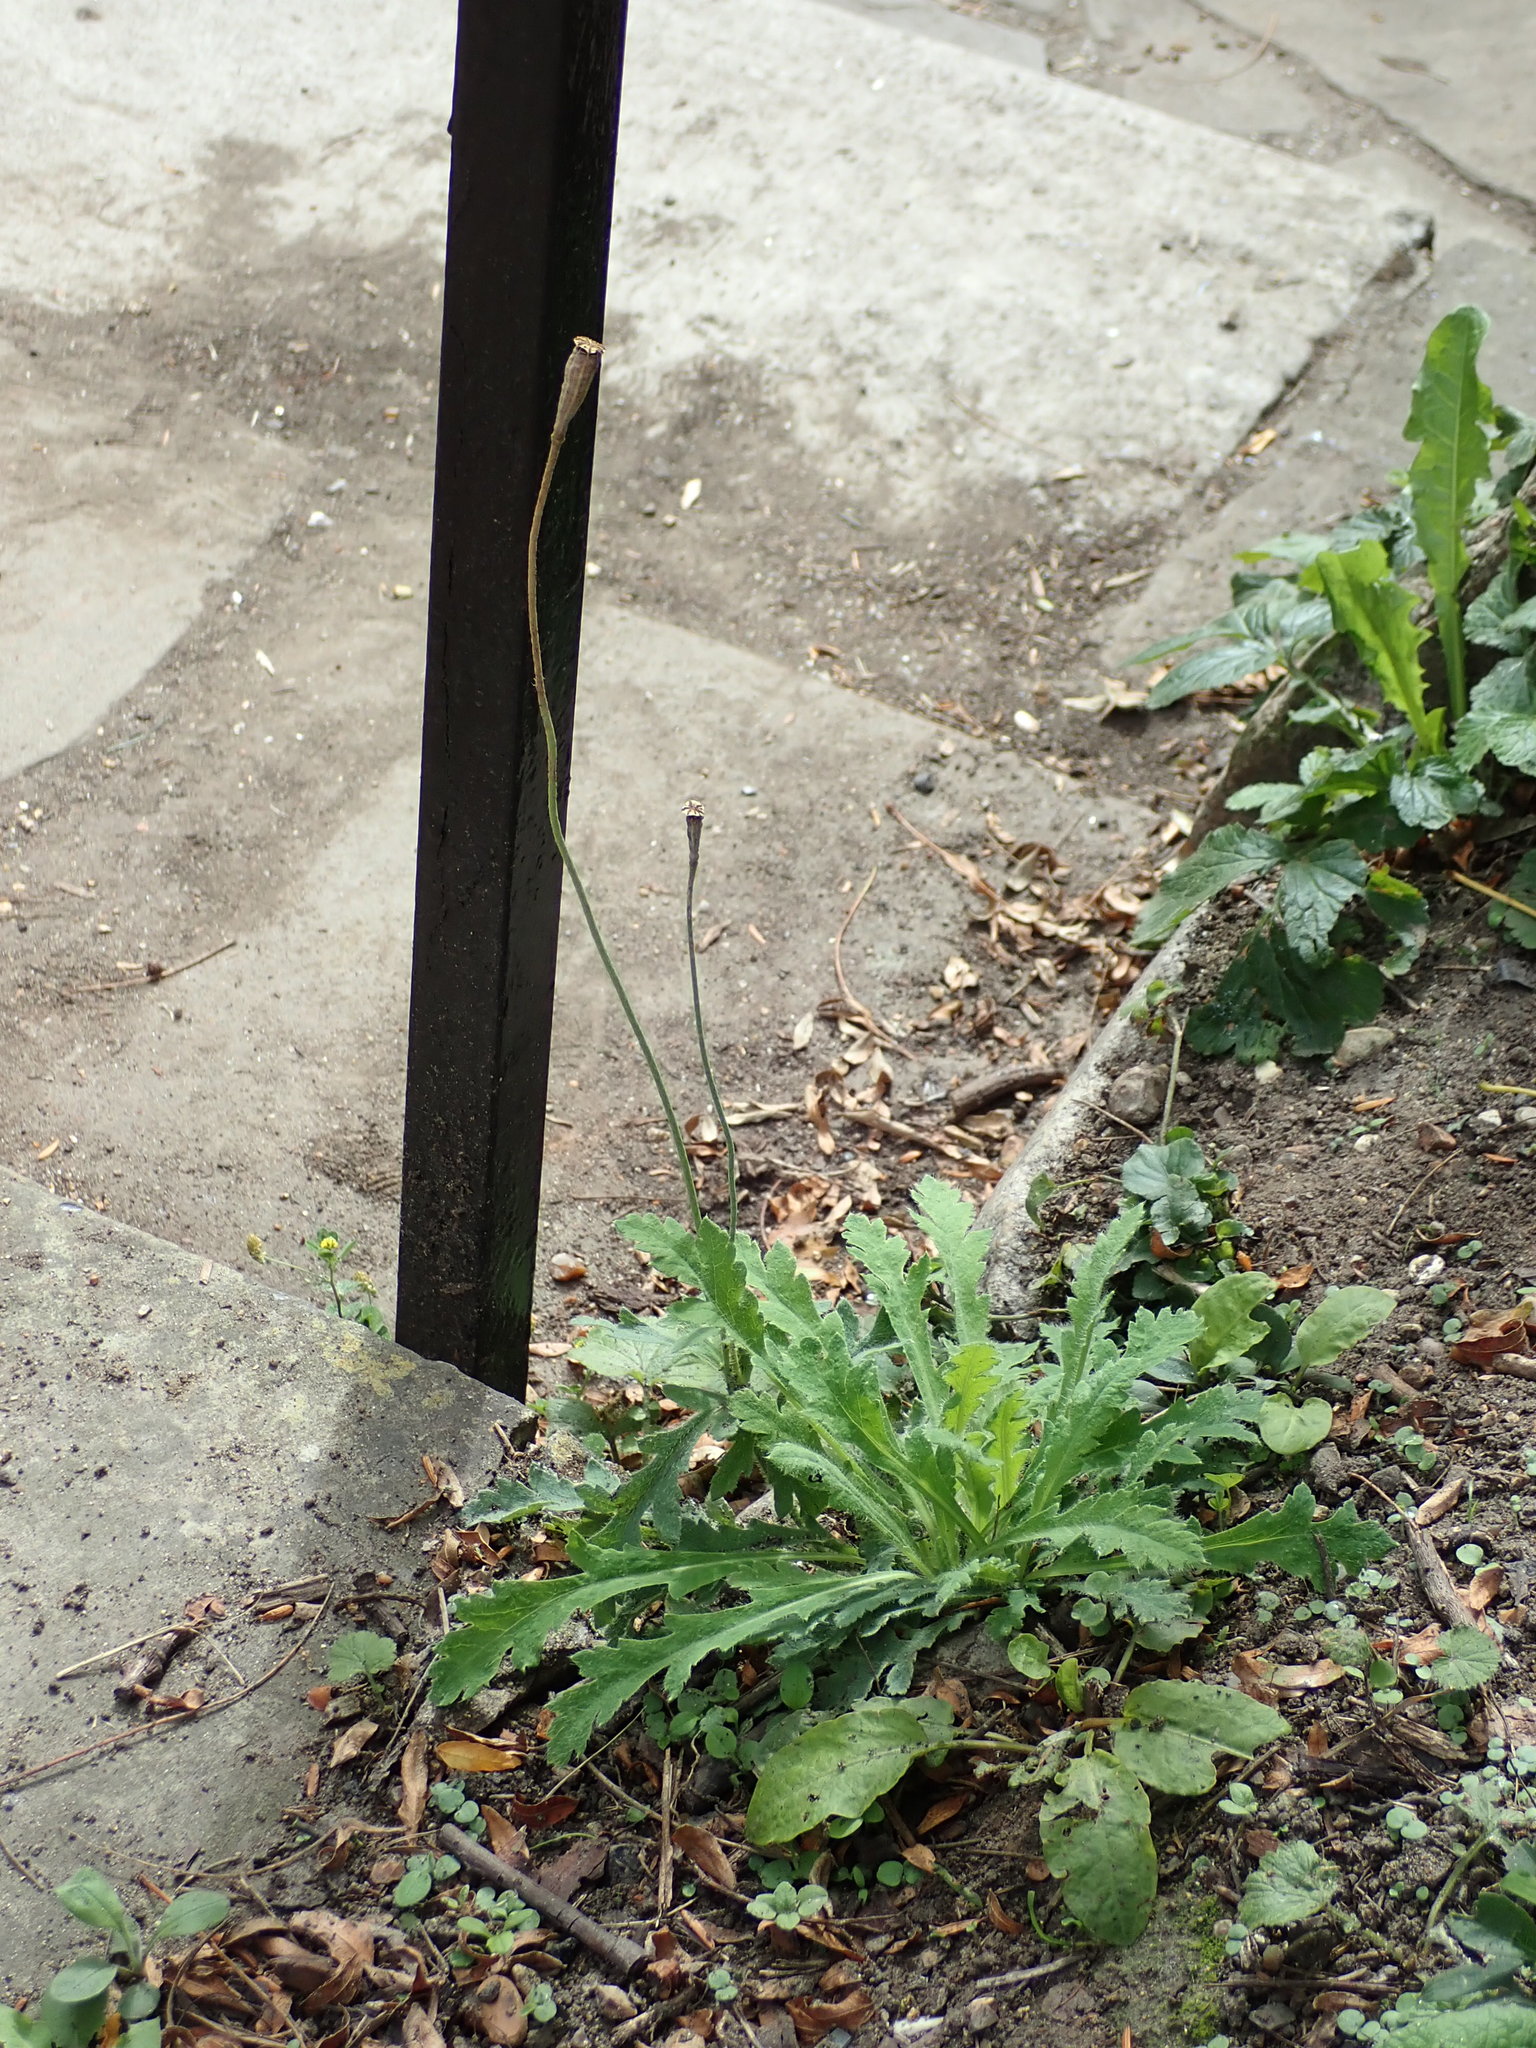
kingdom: Plantae
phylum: Tracheophyta
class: Magnoliopsida
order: Ranunculales
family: Papaveraceae
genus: Papaver
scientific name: Papaver dubium
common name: Long-headed poppy
